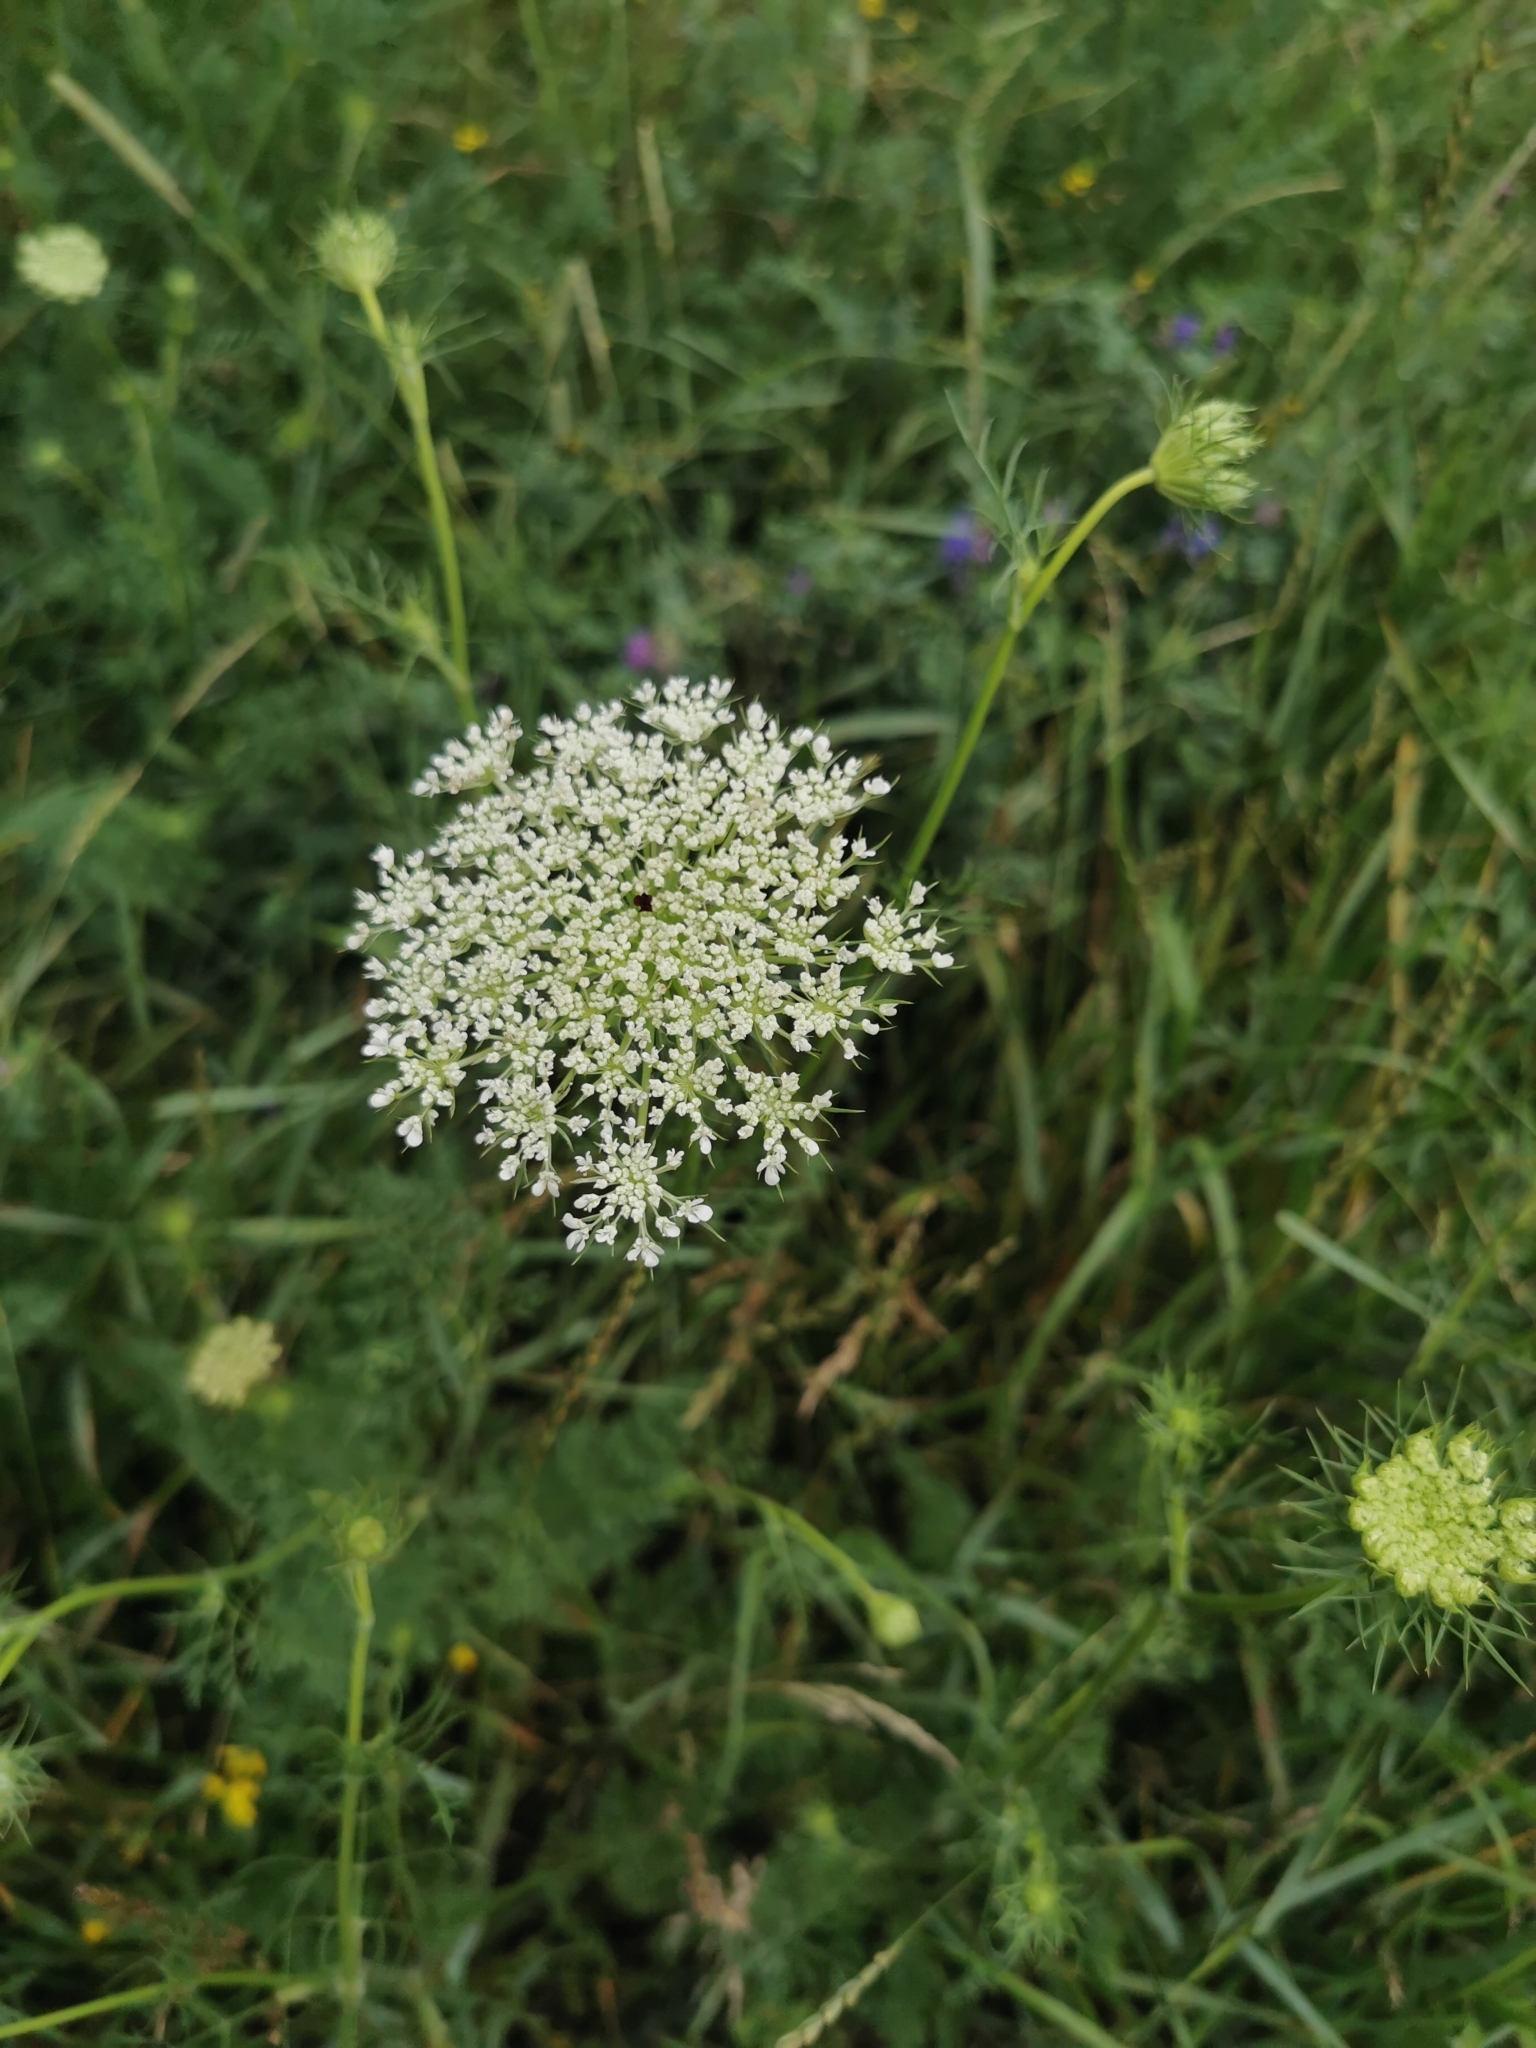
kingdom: Plantae
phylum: Tracheophyta
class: Magnoliopsida
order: Apiales
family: Apiaceae
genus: Daucus
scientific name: Daucus carota
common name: Wild carrot
